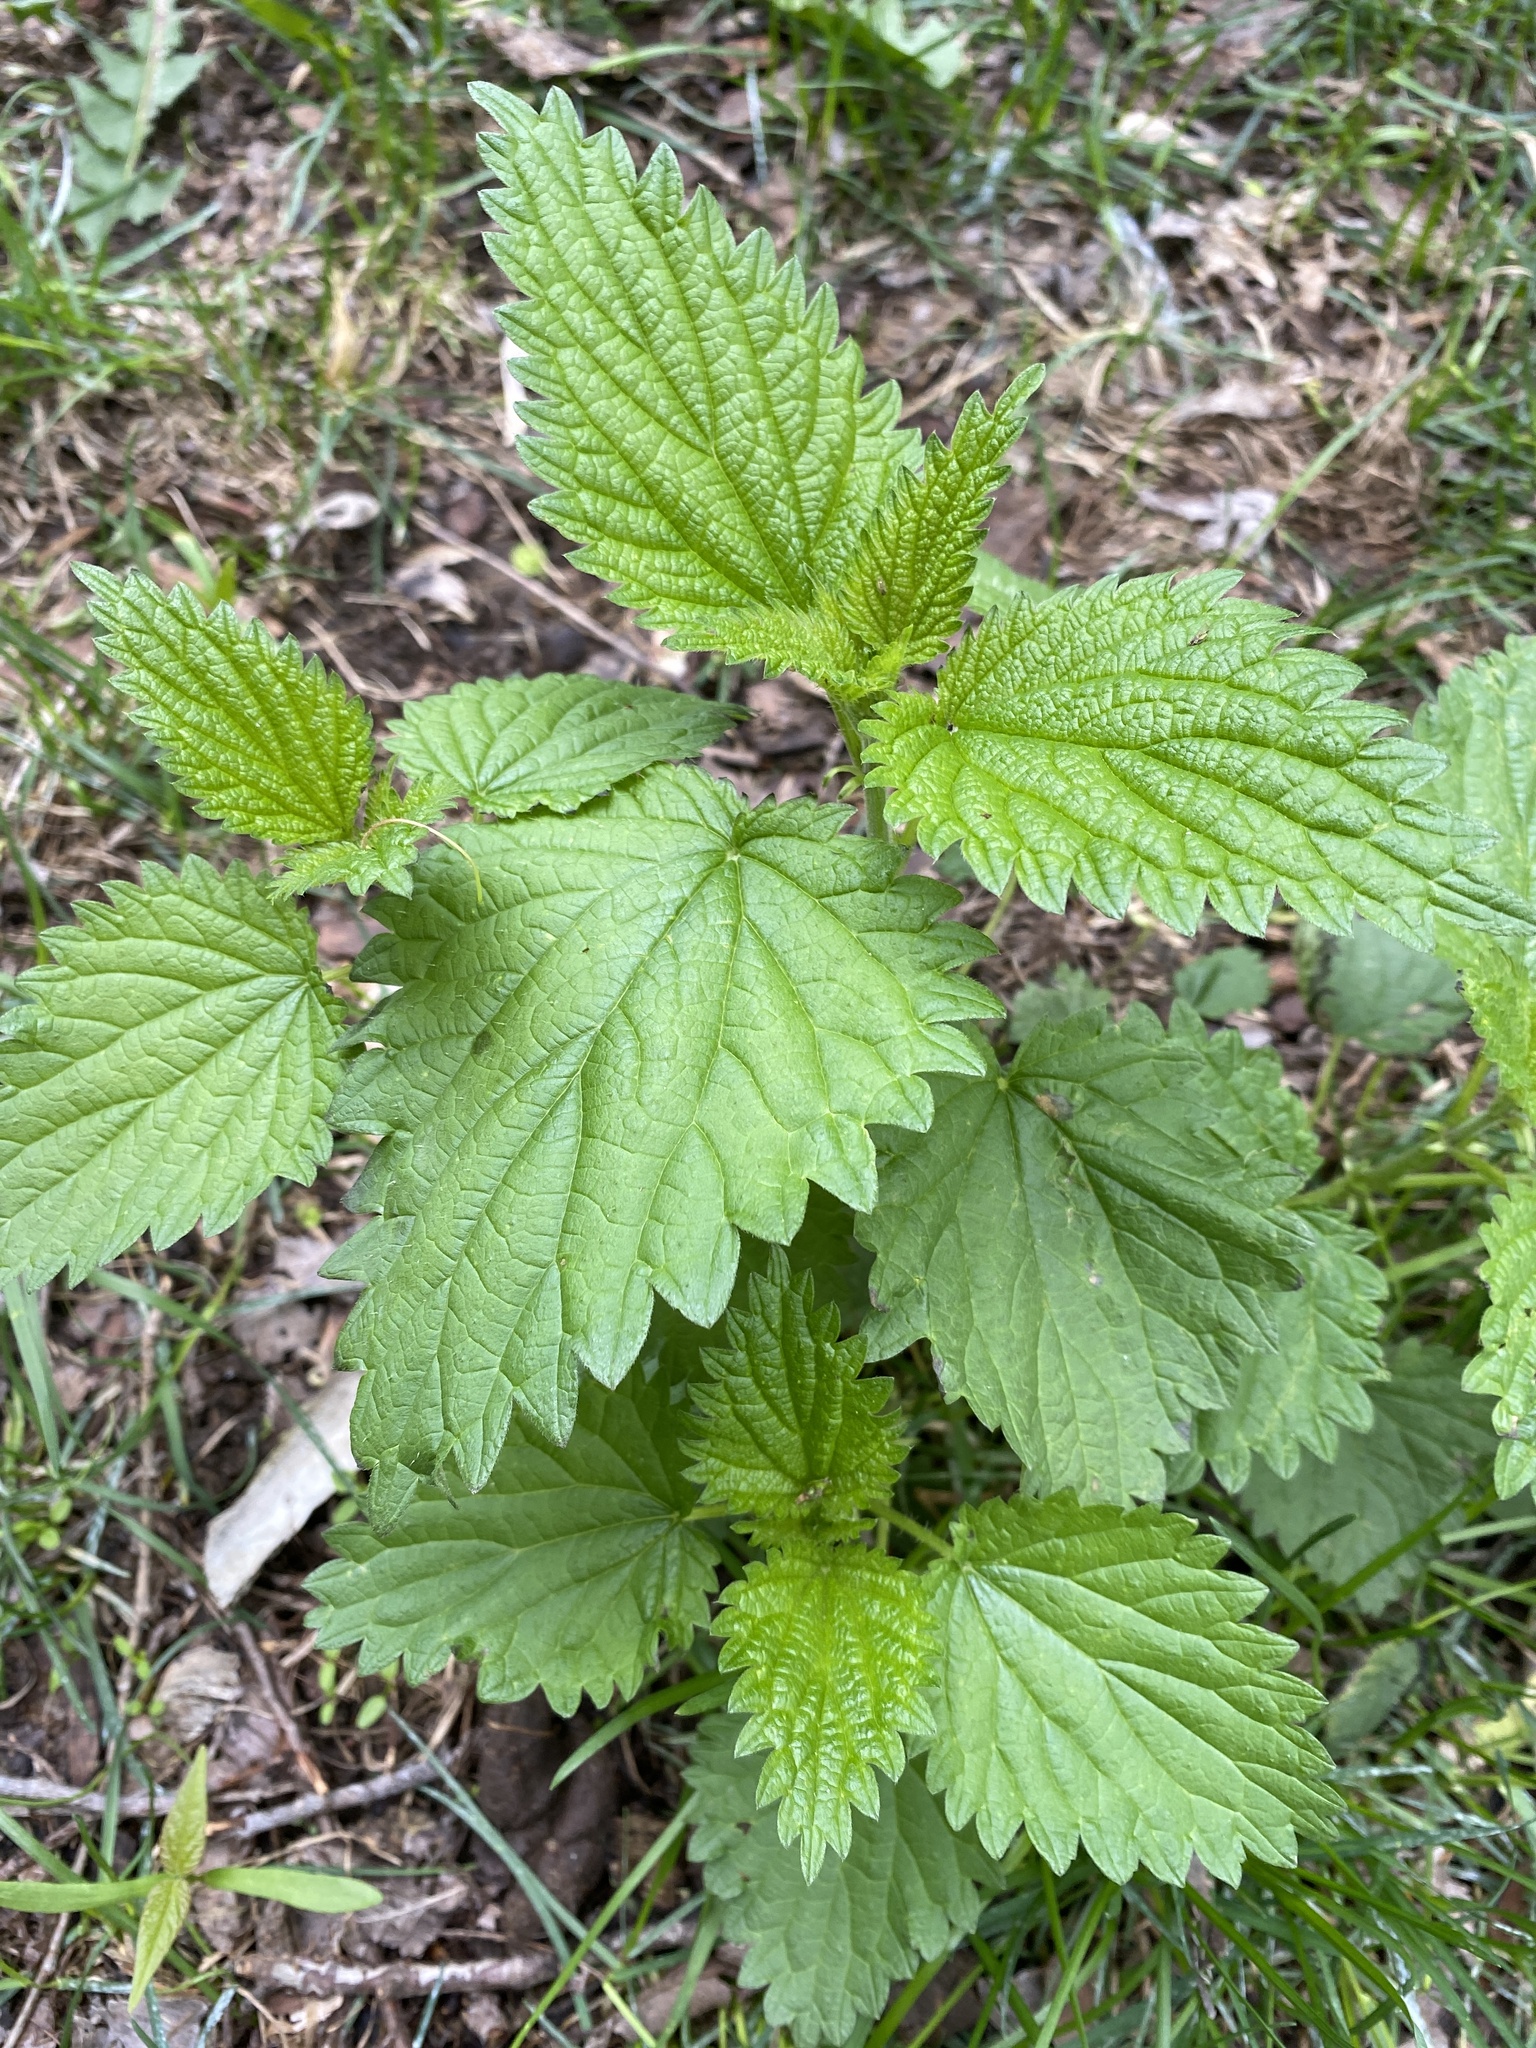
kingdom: Plantae
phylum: Tracheophyta
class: Magnoliopsida
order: Rosales
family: Urticaceae
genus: Urtica
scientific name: Urtica dioica
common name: Common nettle
